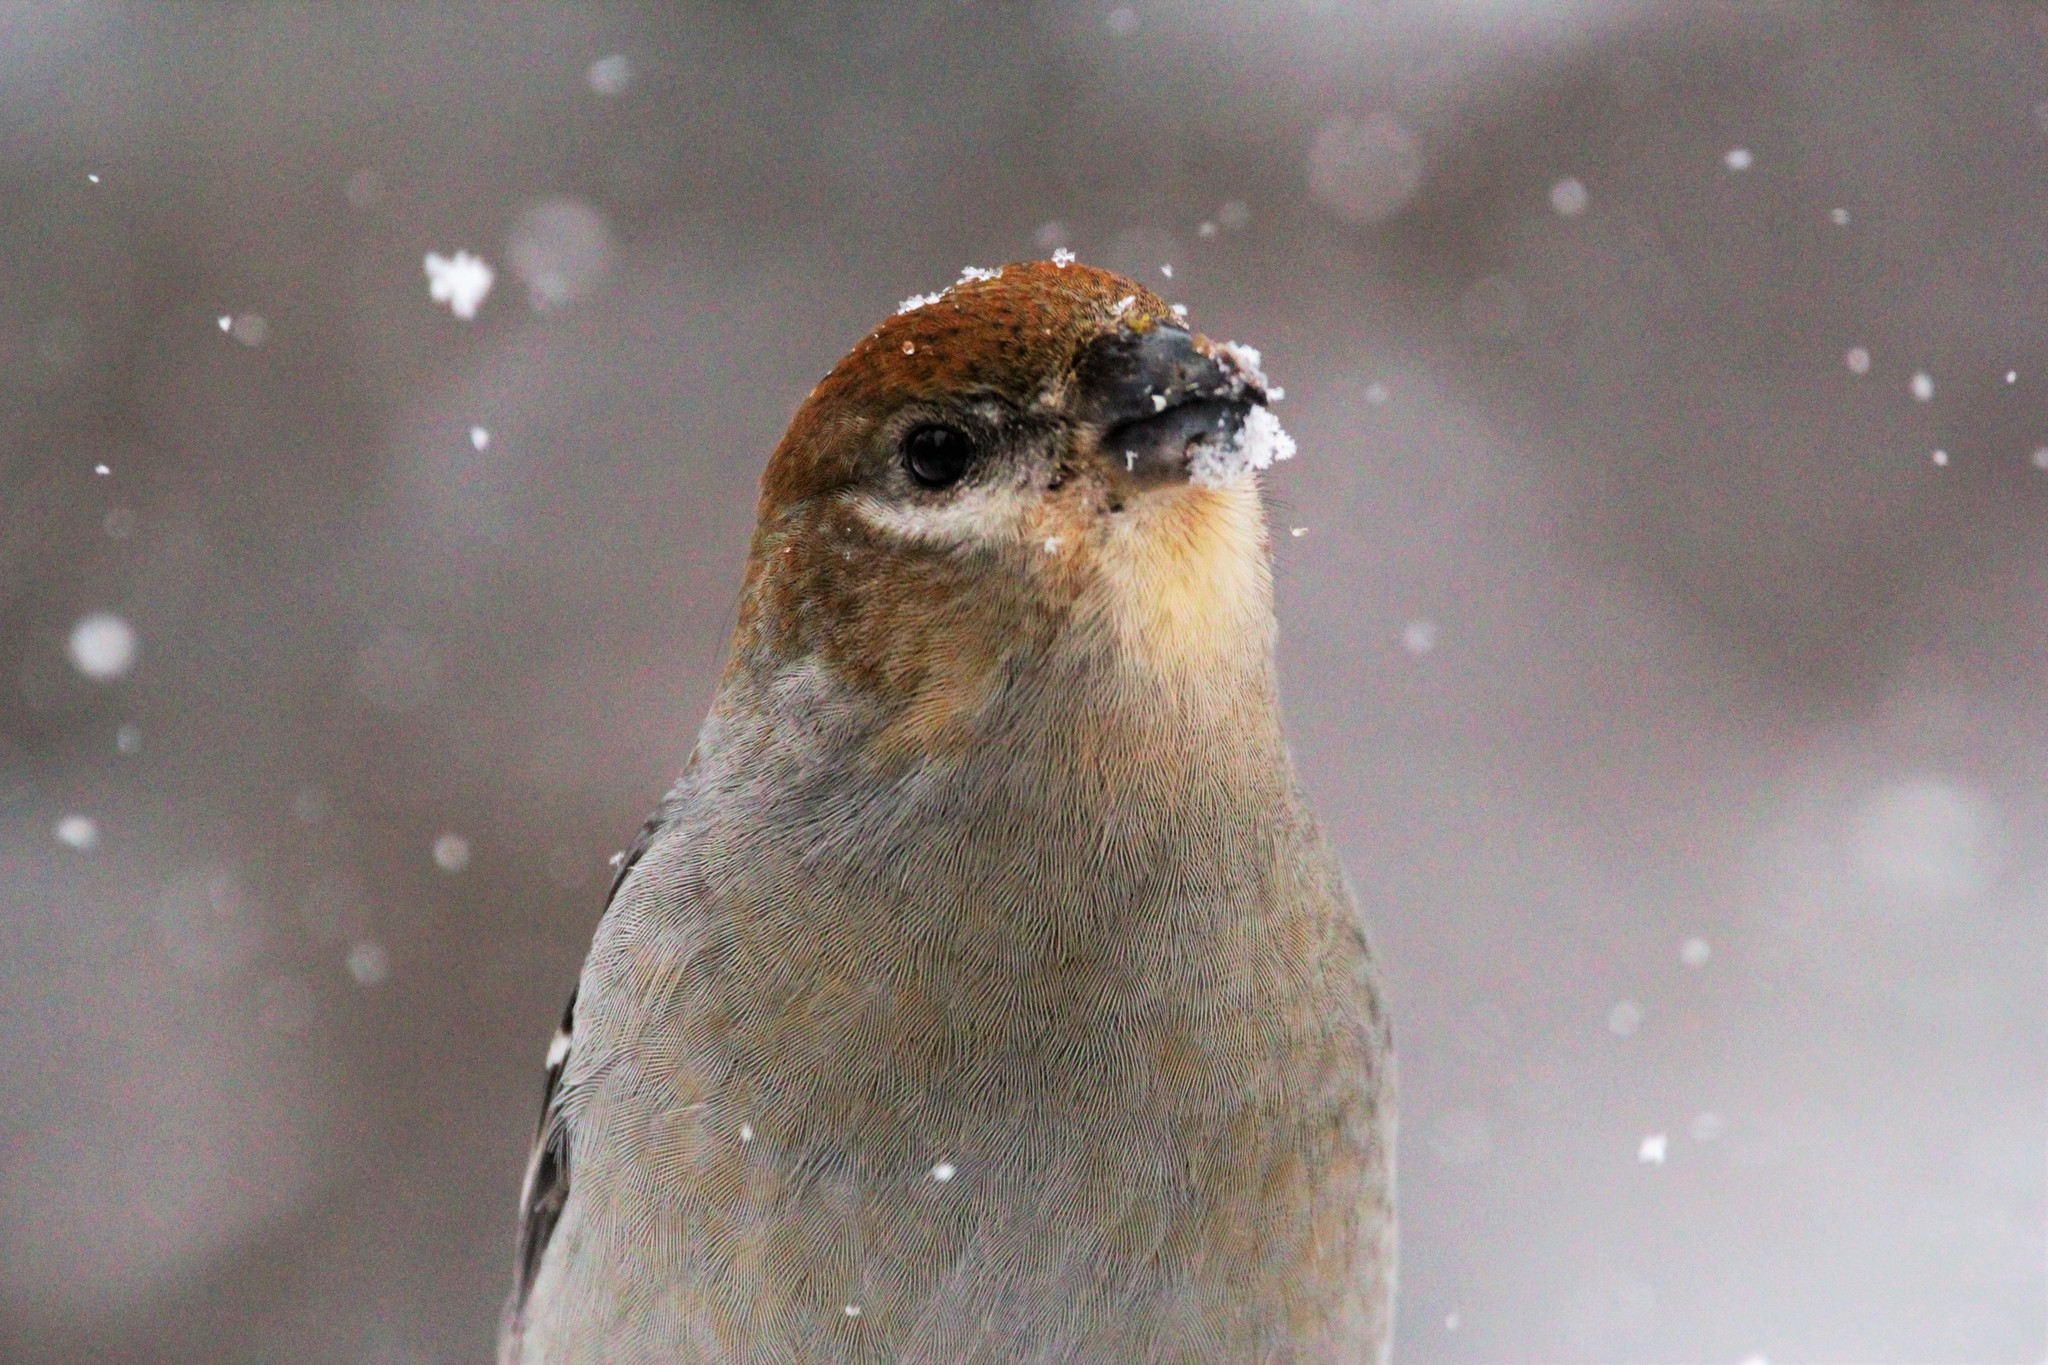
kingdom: Animalia
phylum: Chordata
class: Aves
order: Passeriformes
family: Fringillidae
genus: Pinicola
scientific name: Pinicola enucleator
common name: Pine grosbeak
